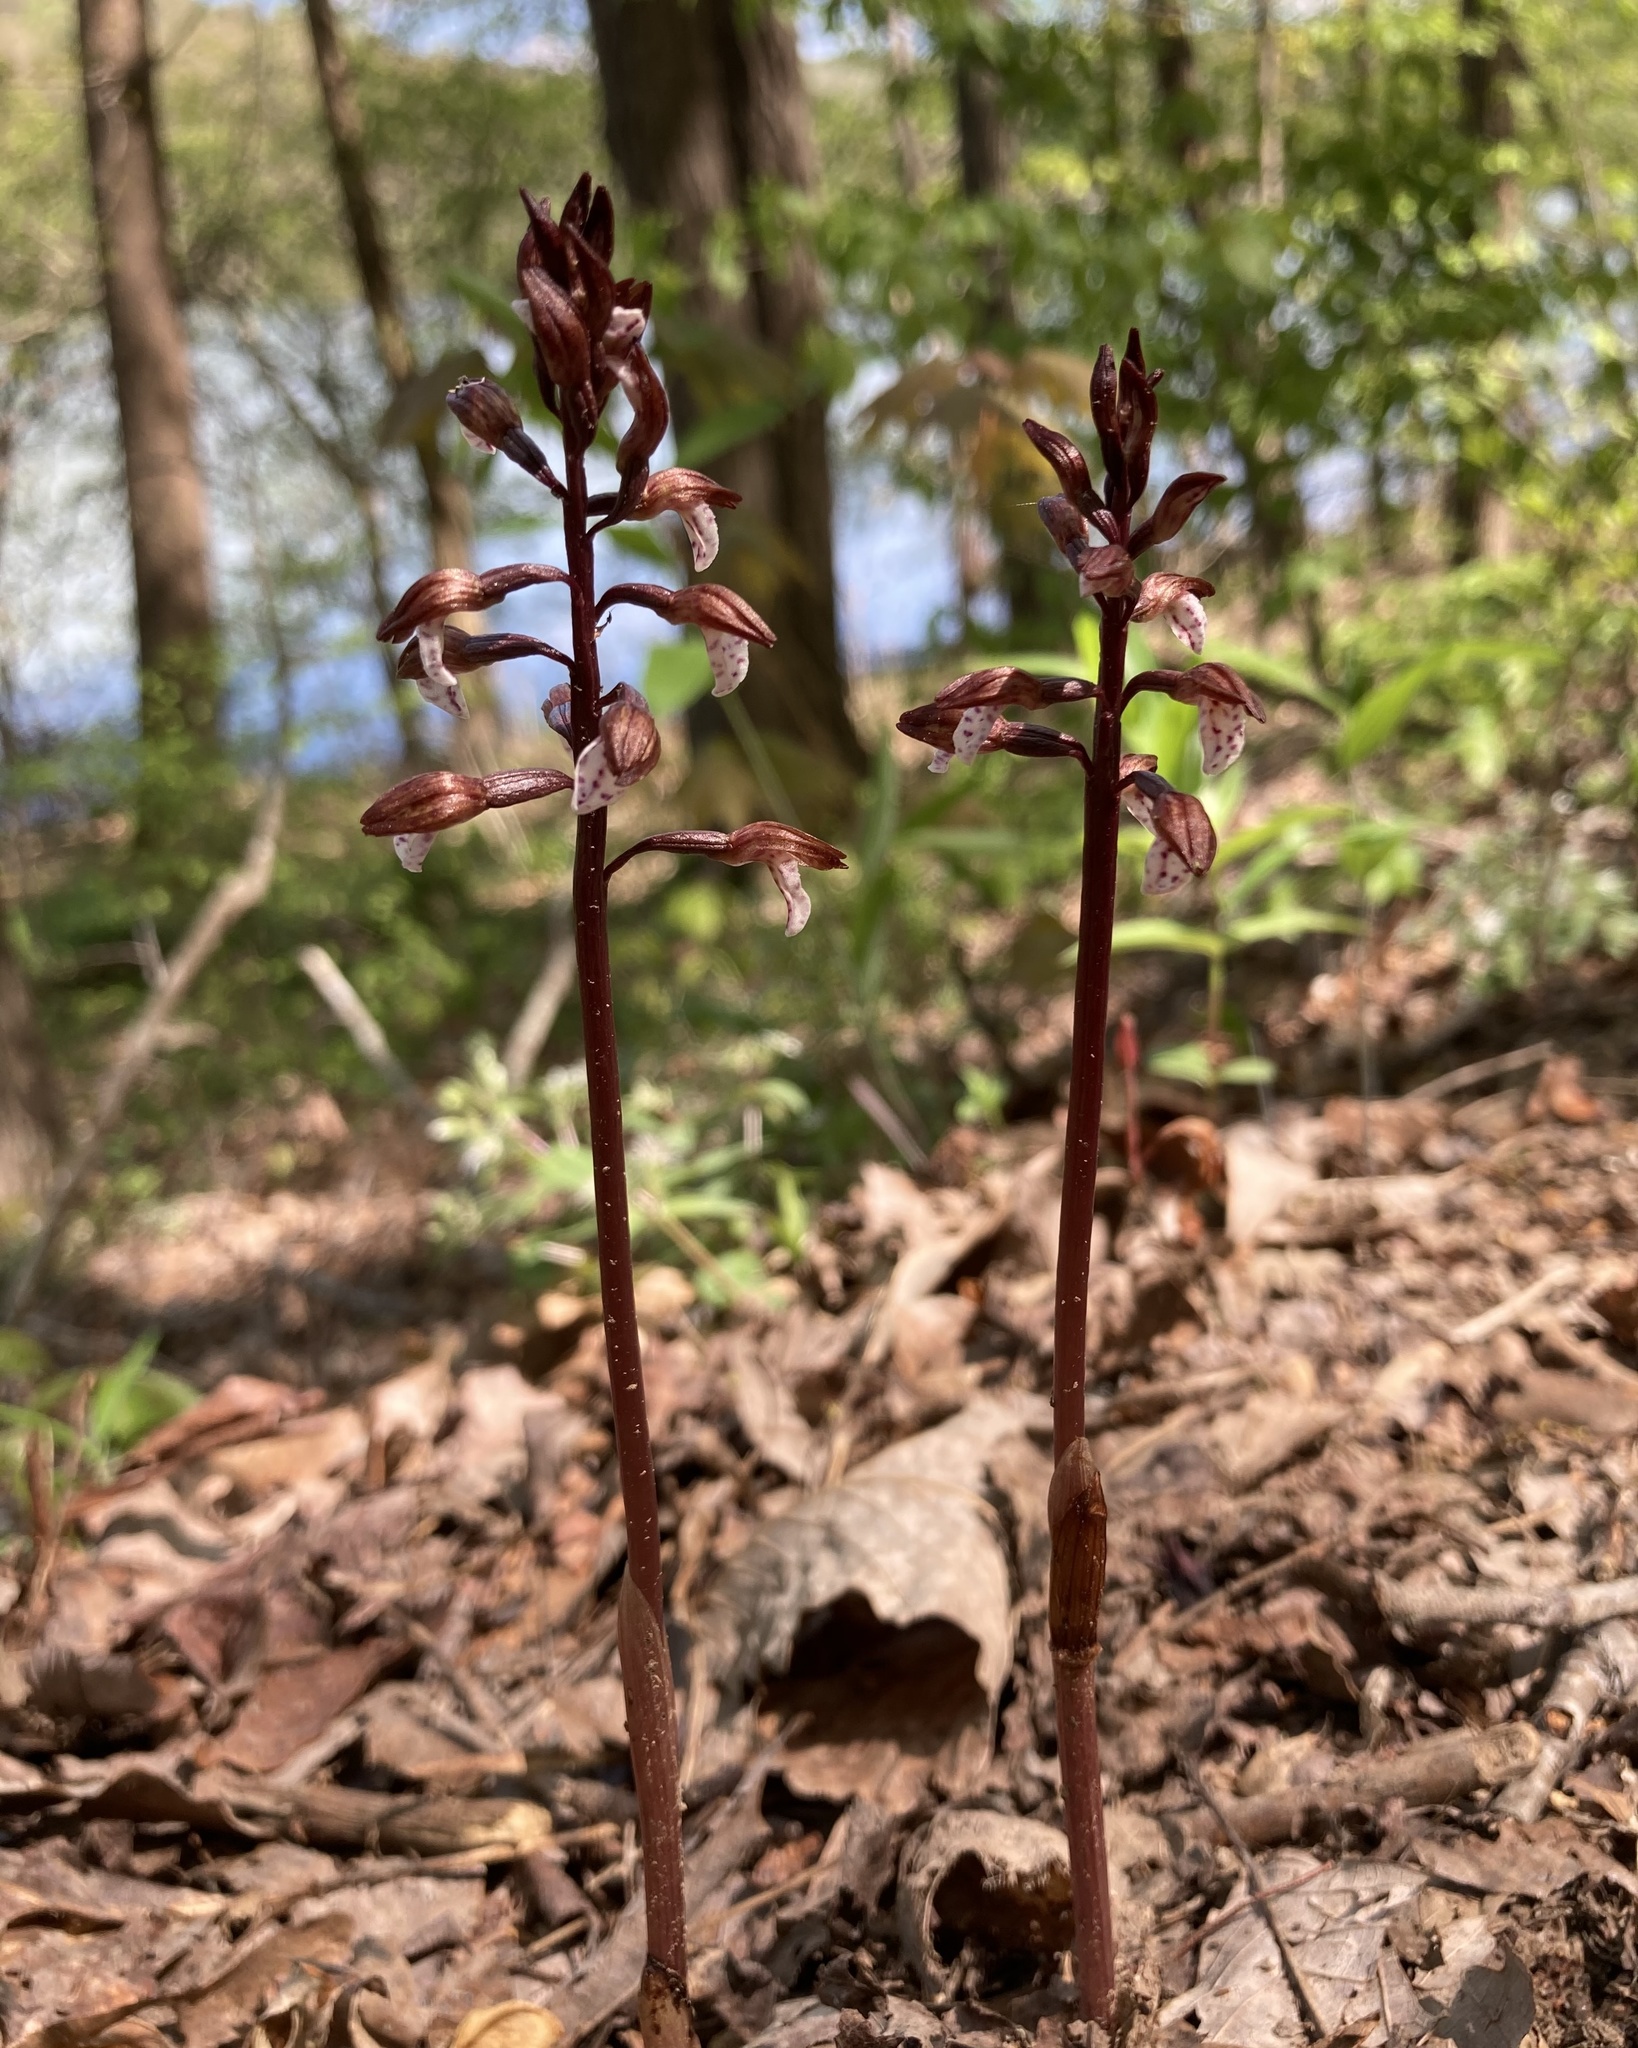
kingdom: Plantae
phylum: Tracheophyta
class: Liliopsida
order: Asparagales
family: Orchidaceae
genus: Corallorhiza
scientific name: Corallorhiza wisteriana
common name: Spring coralroot
